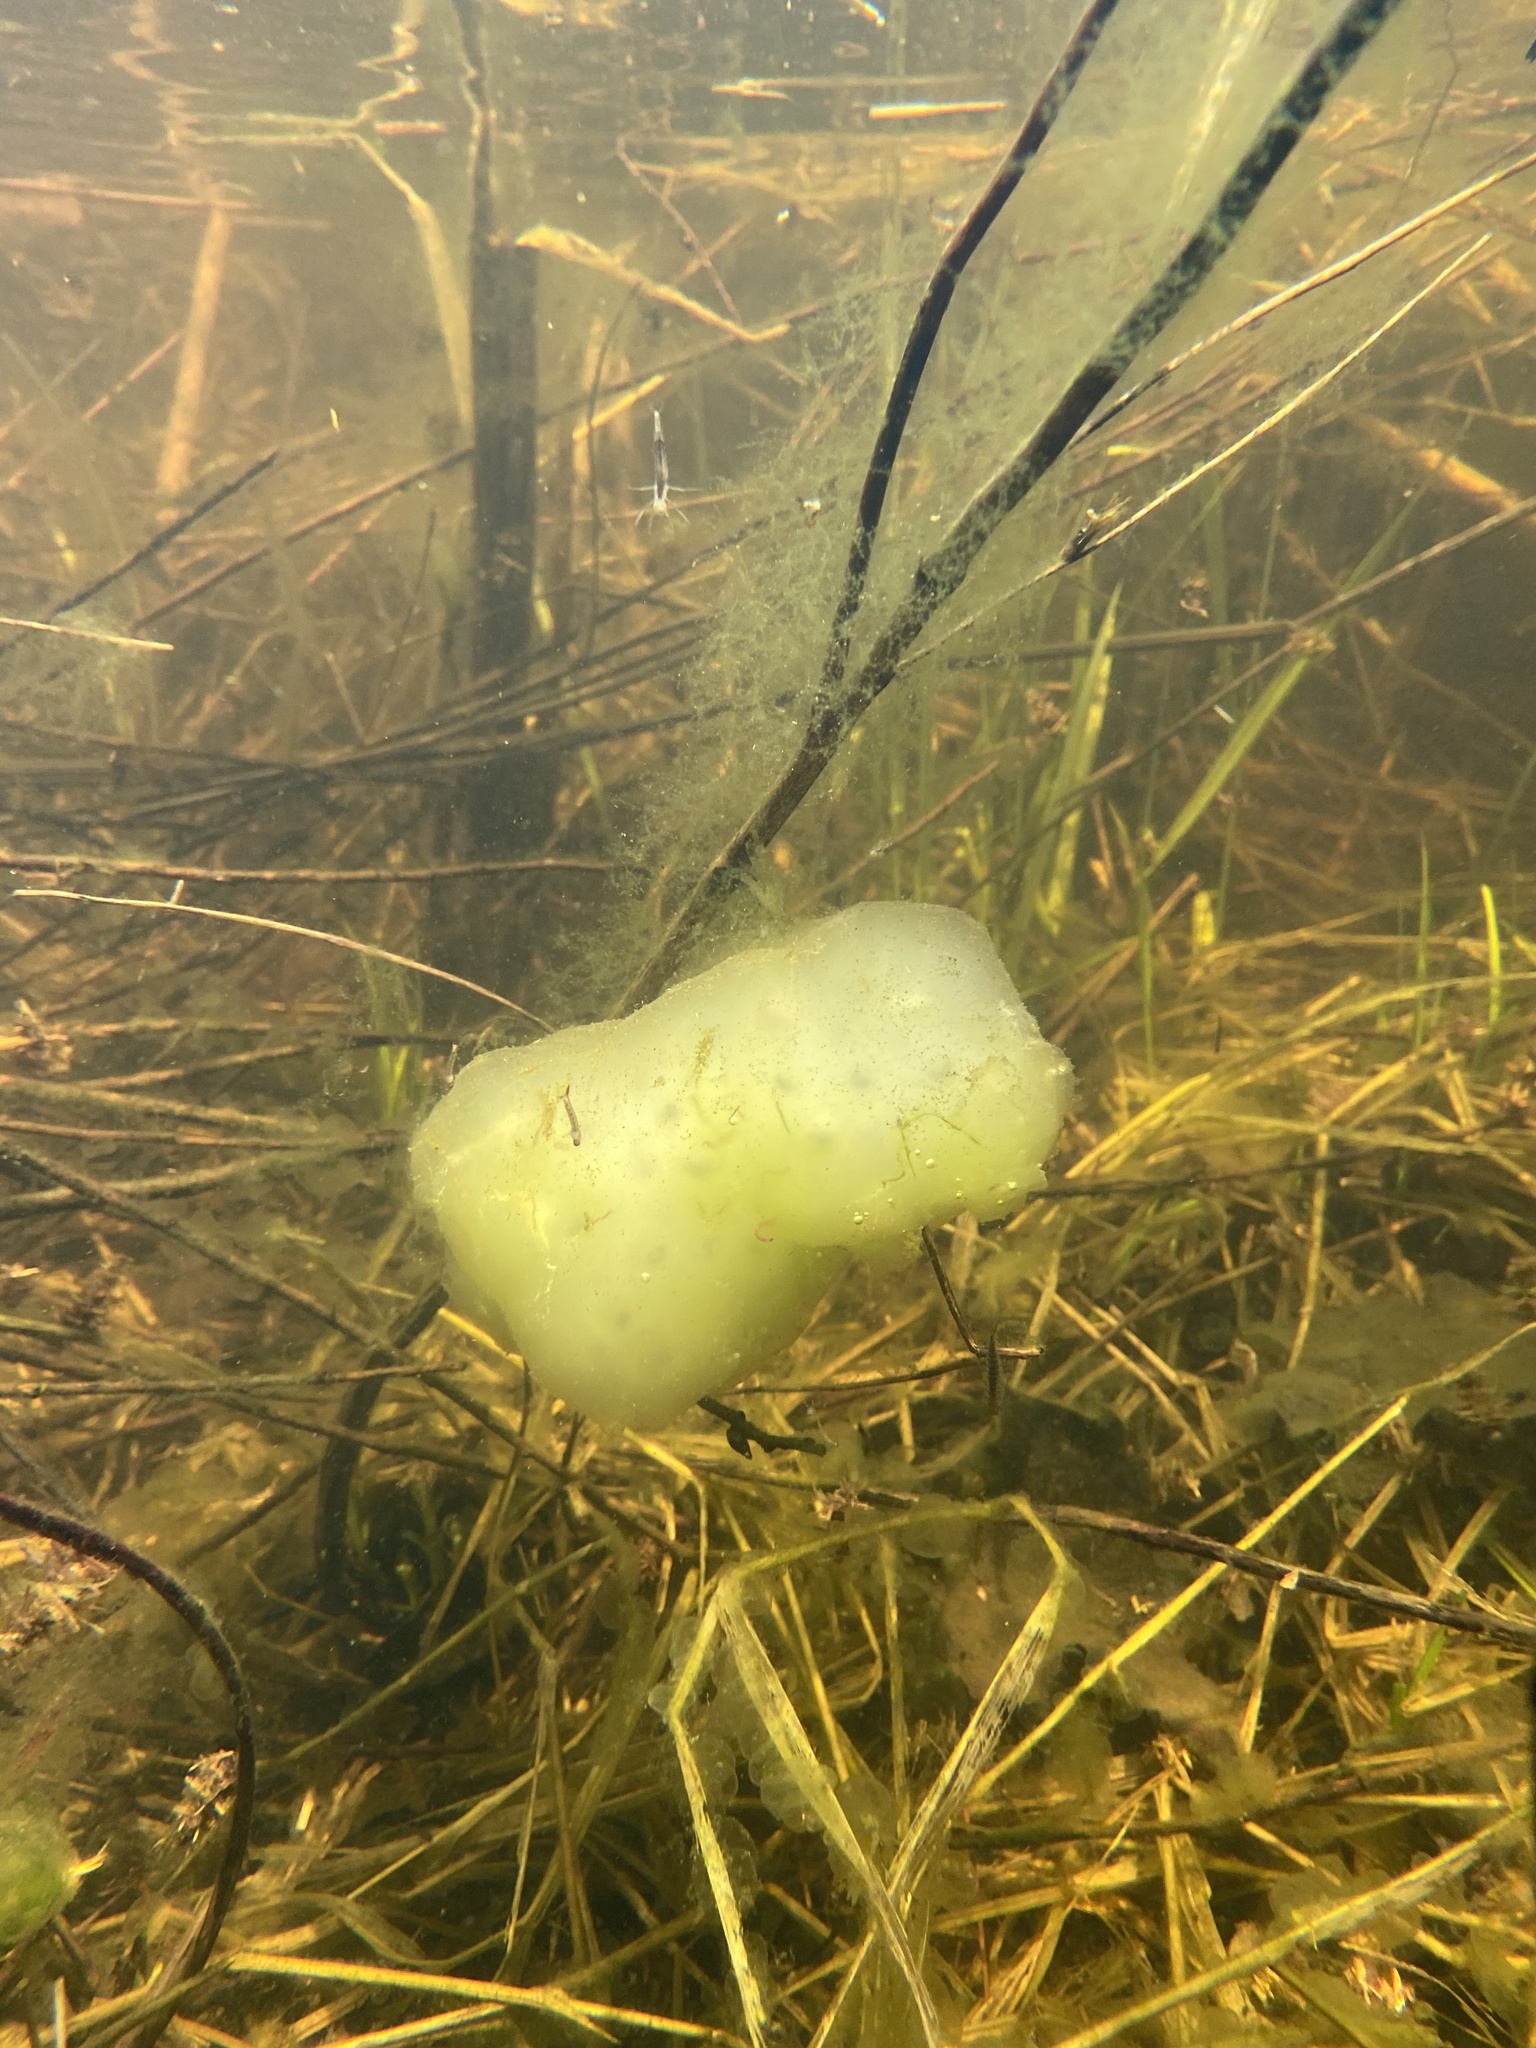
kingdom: Animalia
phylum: Chordata
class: Amphibia
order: Caudata
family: Ambystomatidae
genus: Ambystoma
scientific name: Ambystoma maculatum
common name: Spotted salamander
